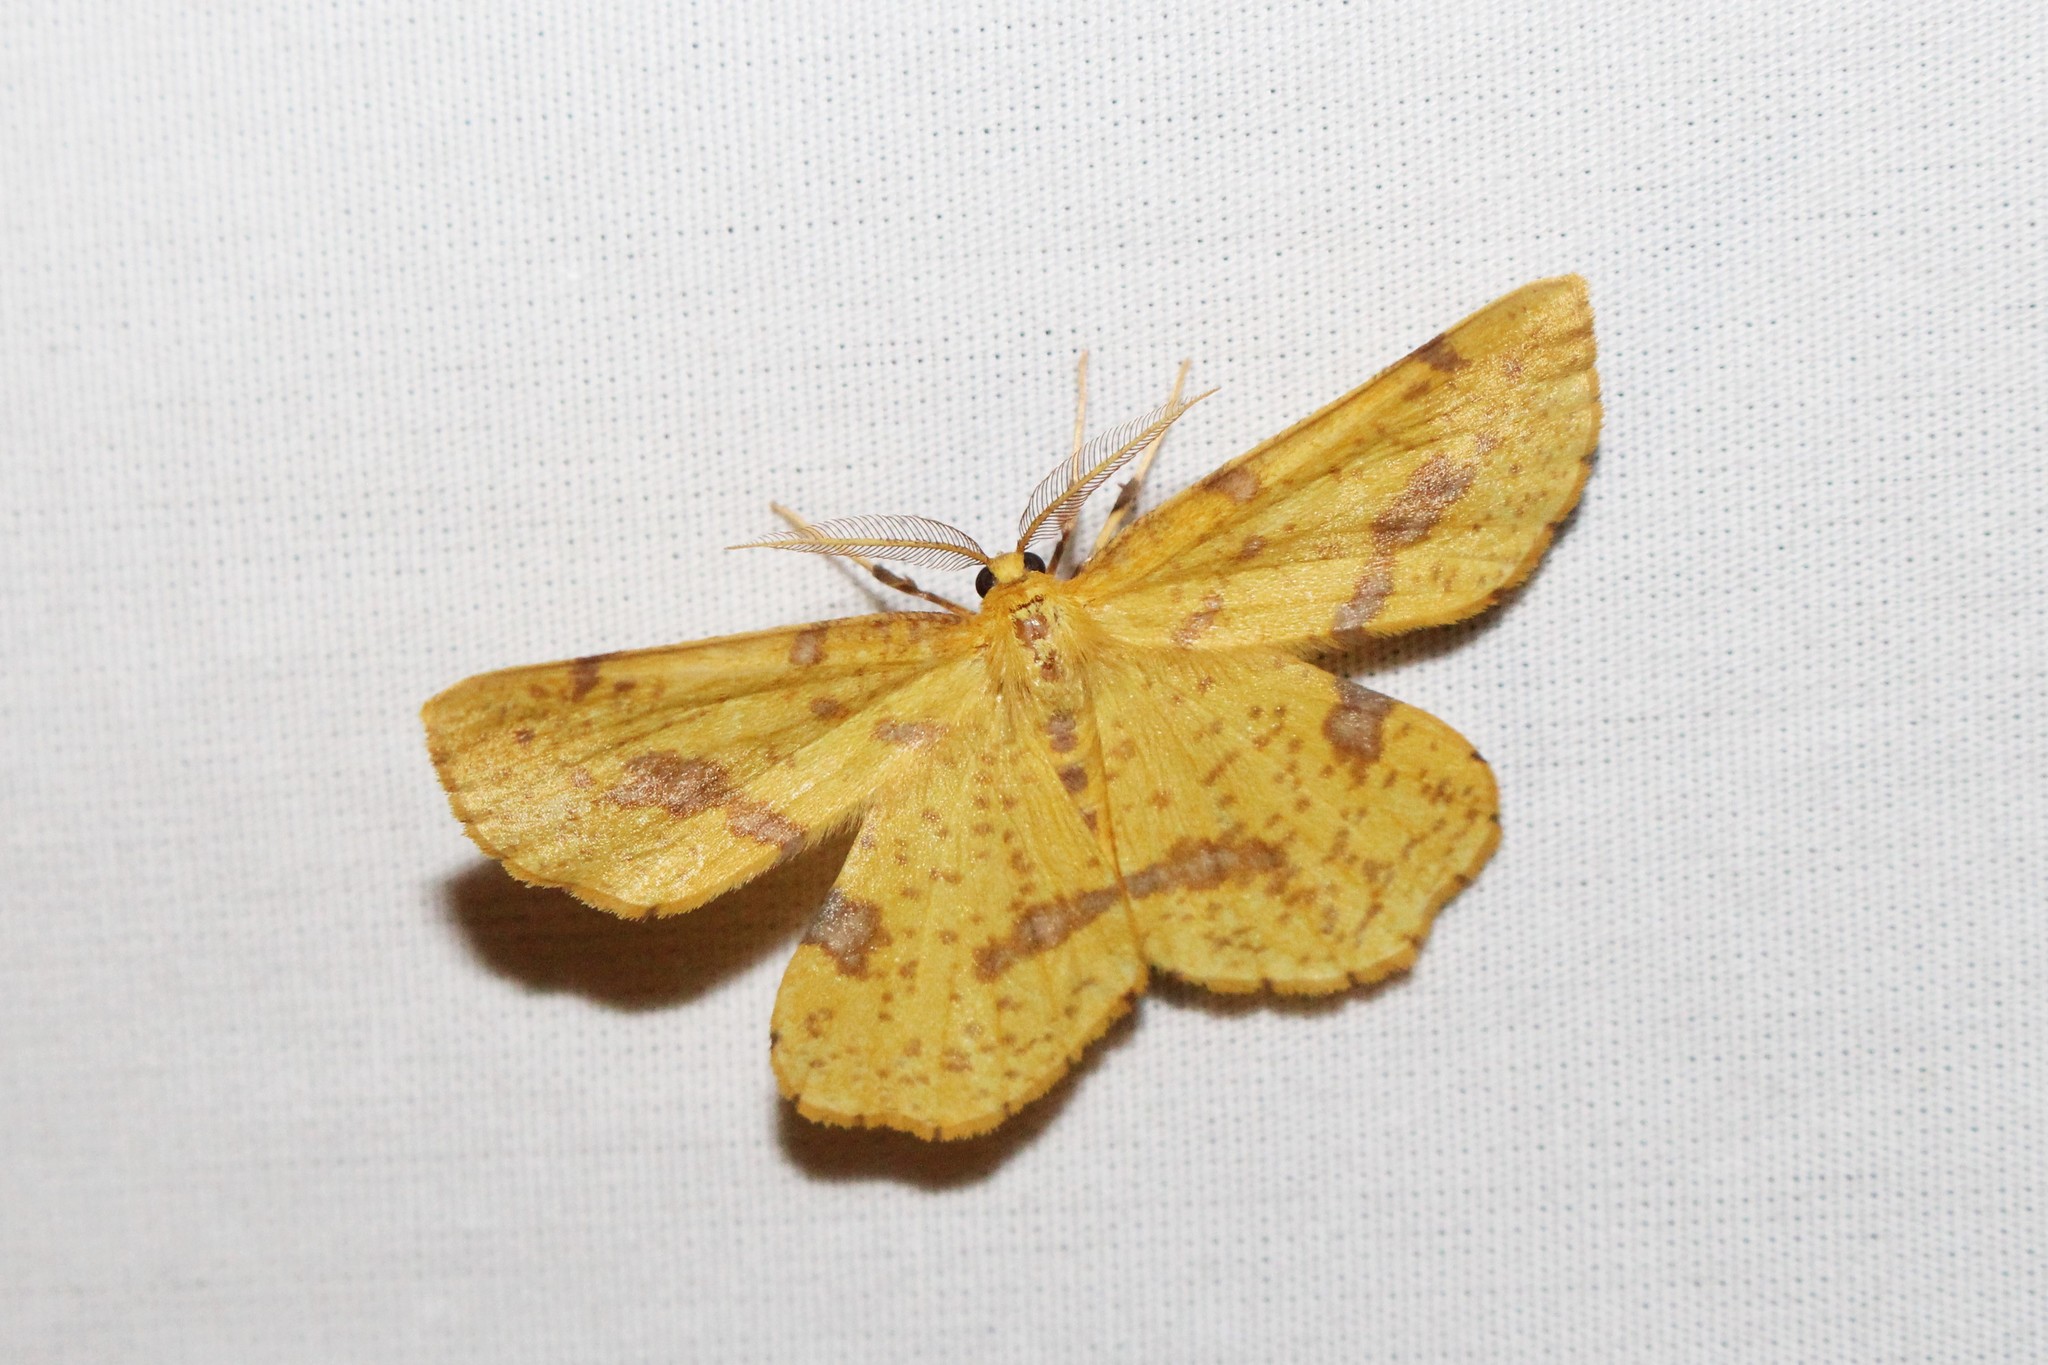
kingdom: Animalia
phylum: Arthropoda
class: Insecta
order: Lepidoptera
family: Geometridae
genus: Xanthotype
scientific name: Xanthotype
